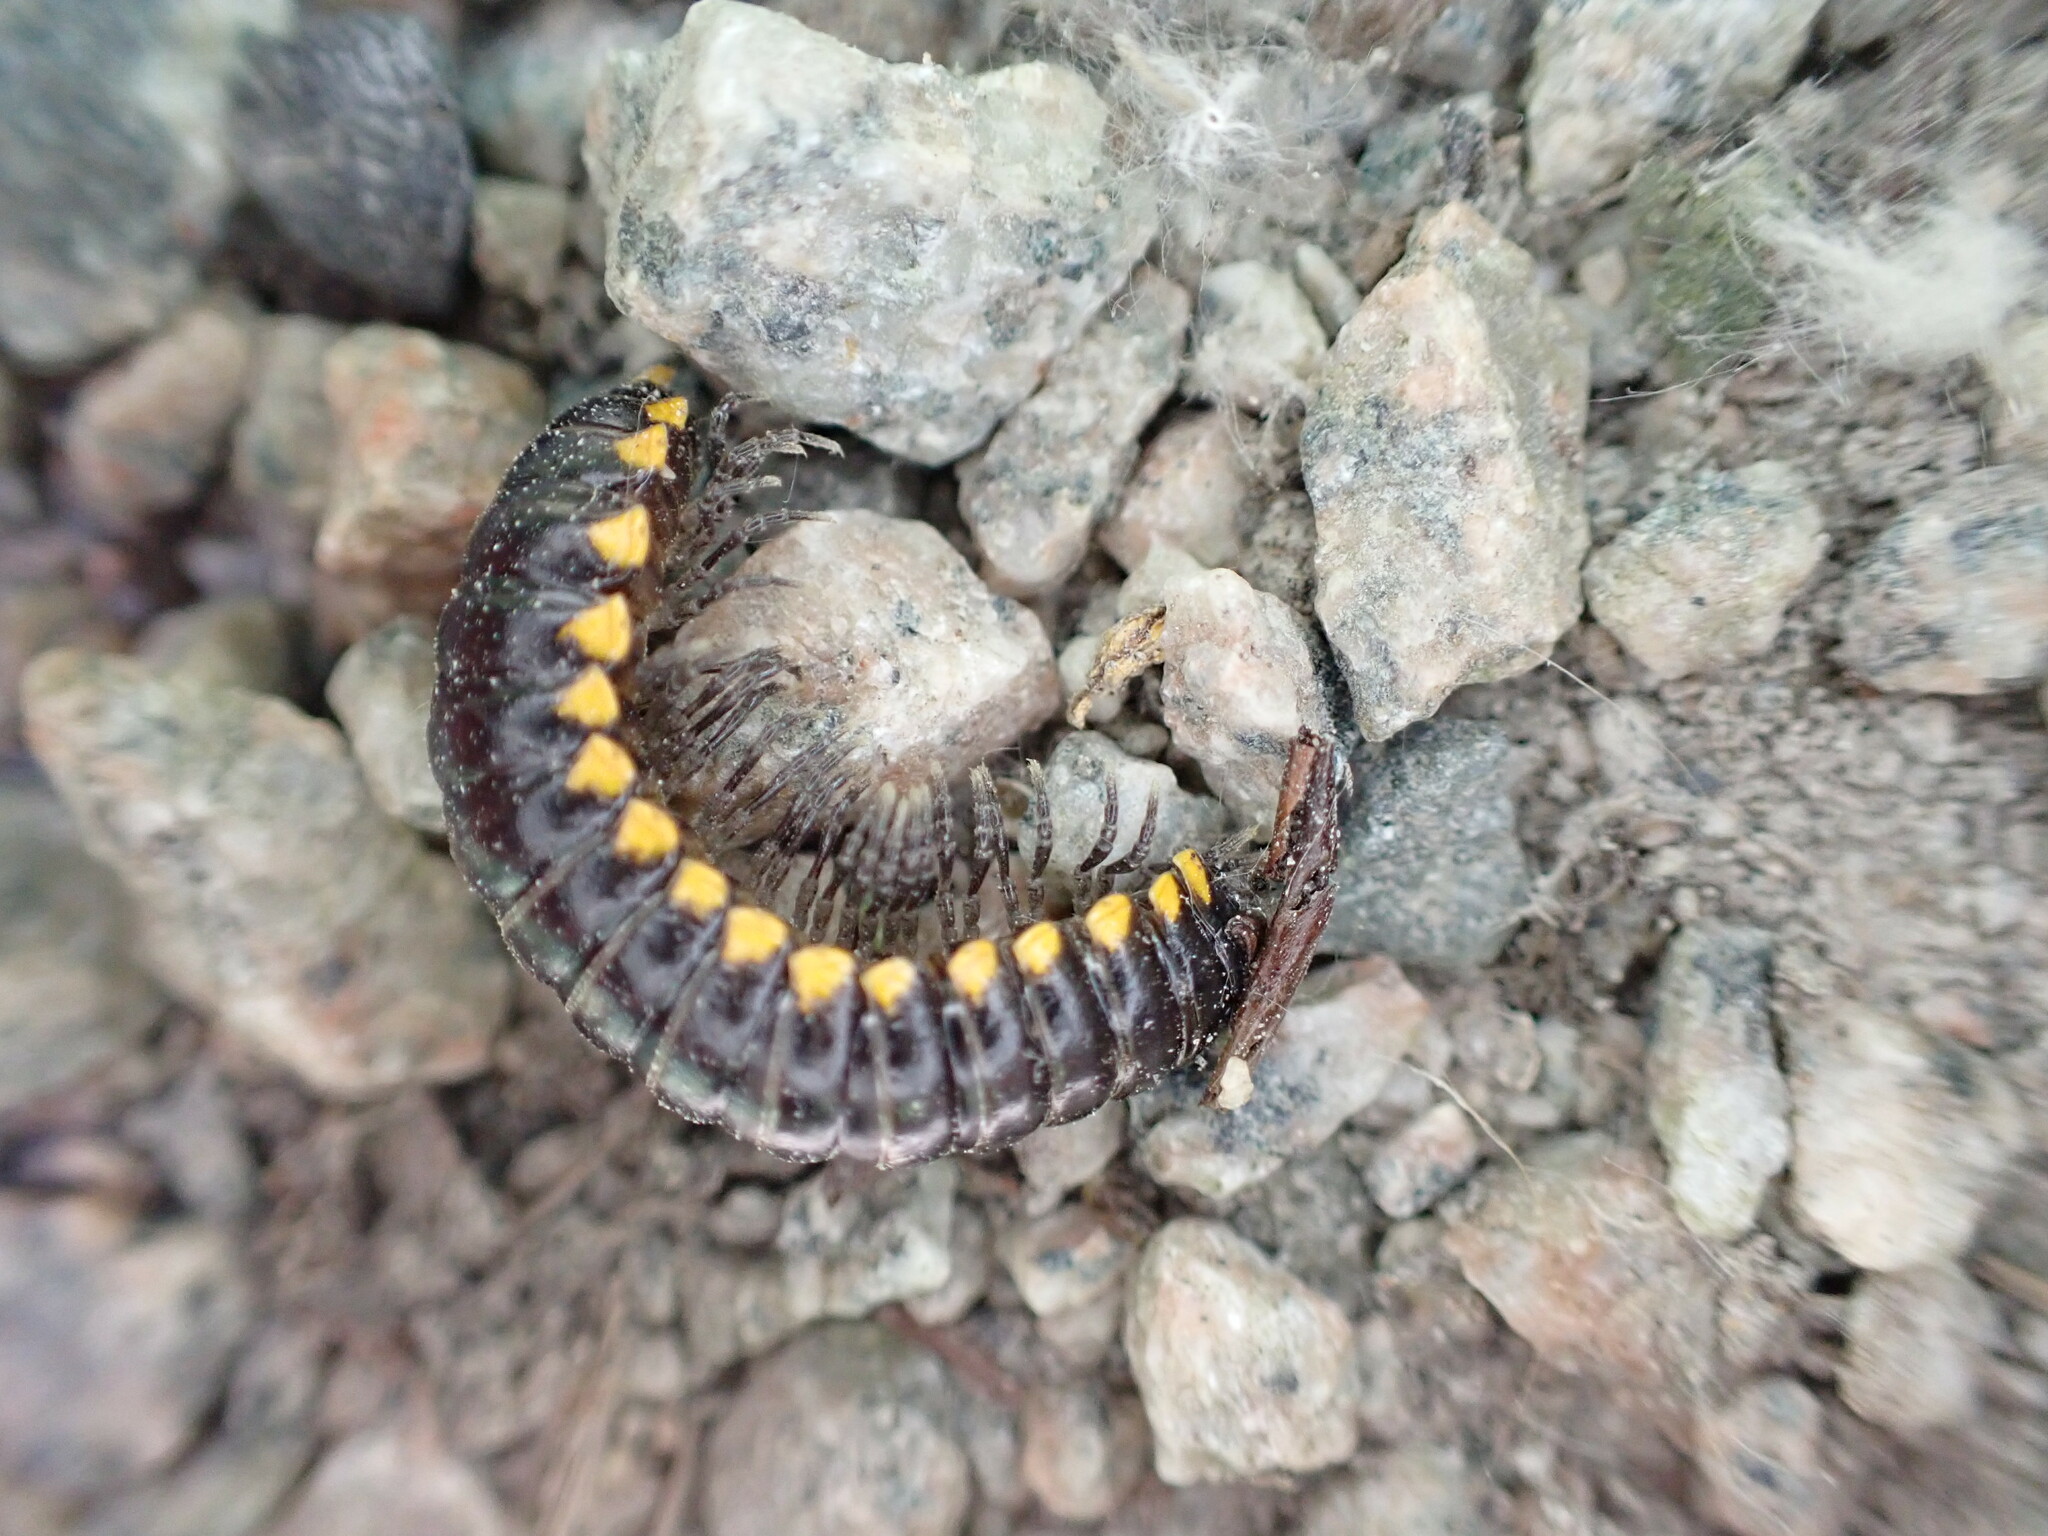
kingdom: Animalia
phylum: Arthropoda
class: Diplopoda
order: Polydesmida
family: Xystodesmidae
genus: Harpaphe
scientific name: Harpaphe haydeniana
